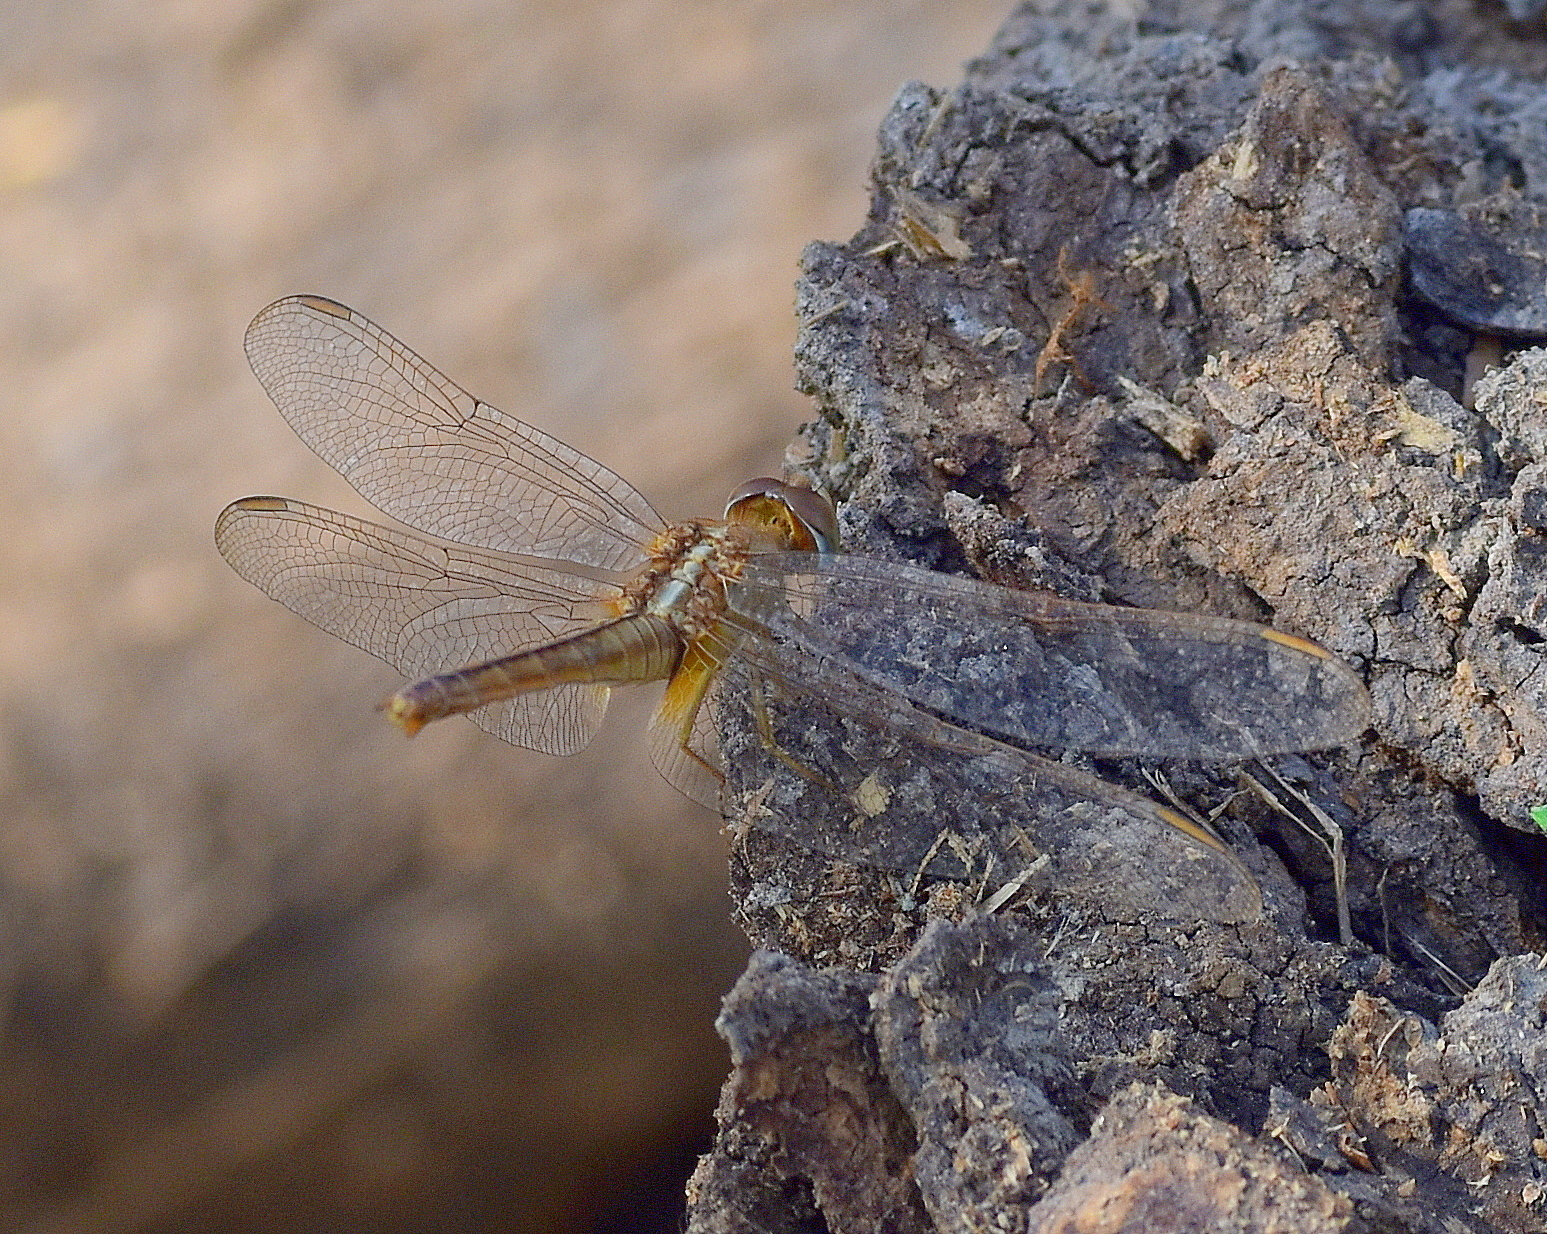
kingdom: Animalia
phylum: Arthropoda
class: Insecta
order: Odonata
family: Libellulidae
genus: Crocothemis
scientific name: Crocothemis servilia
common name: Scarlet skimmer
